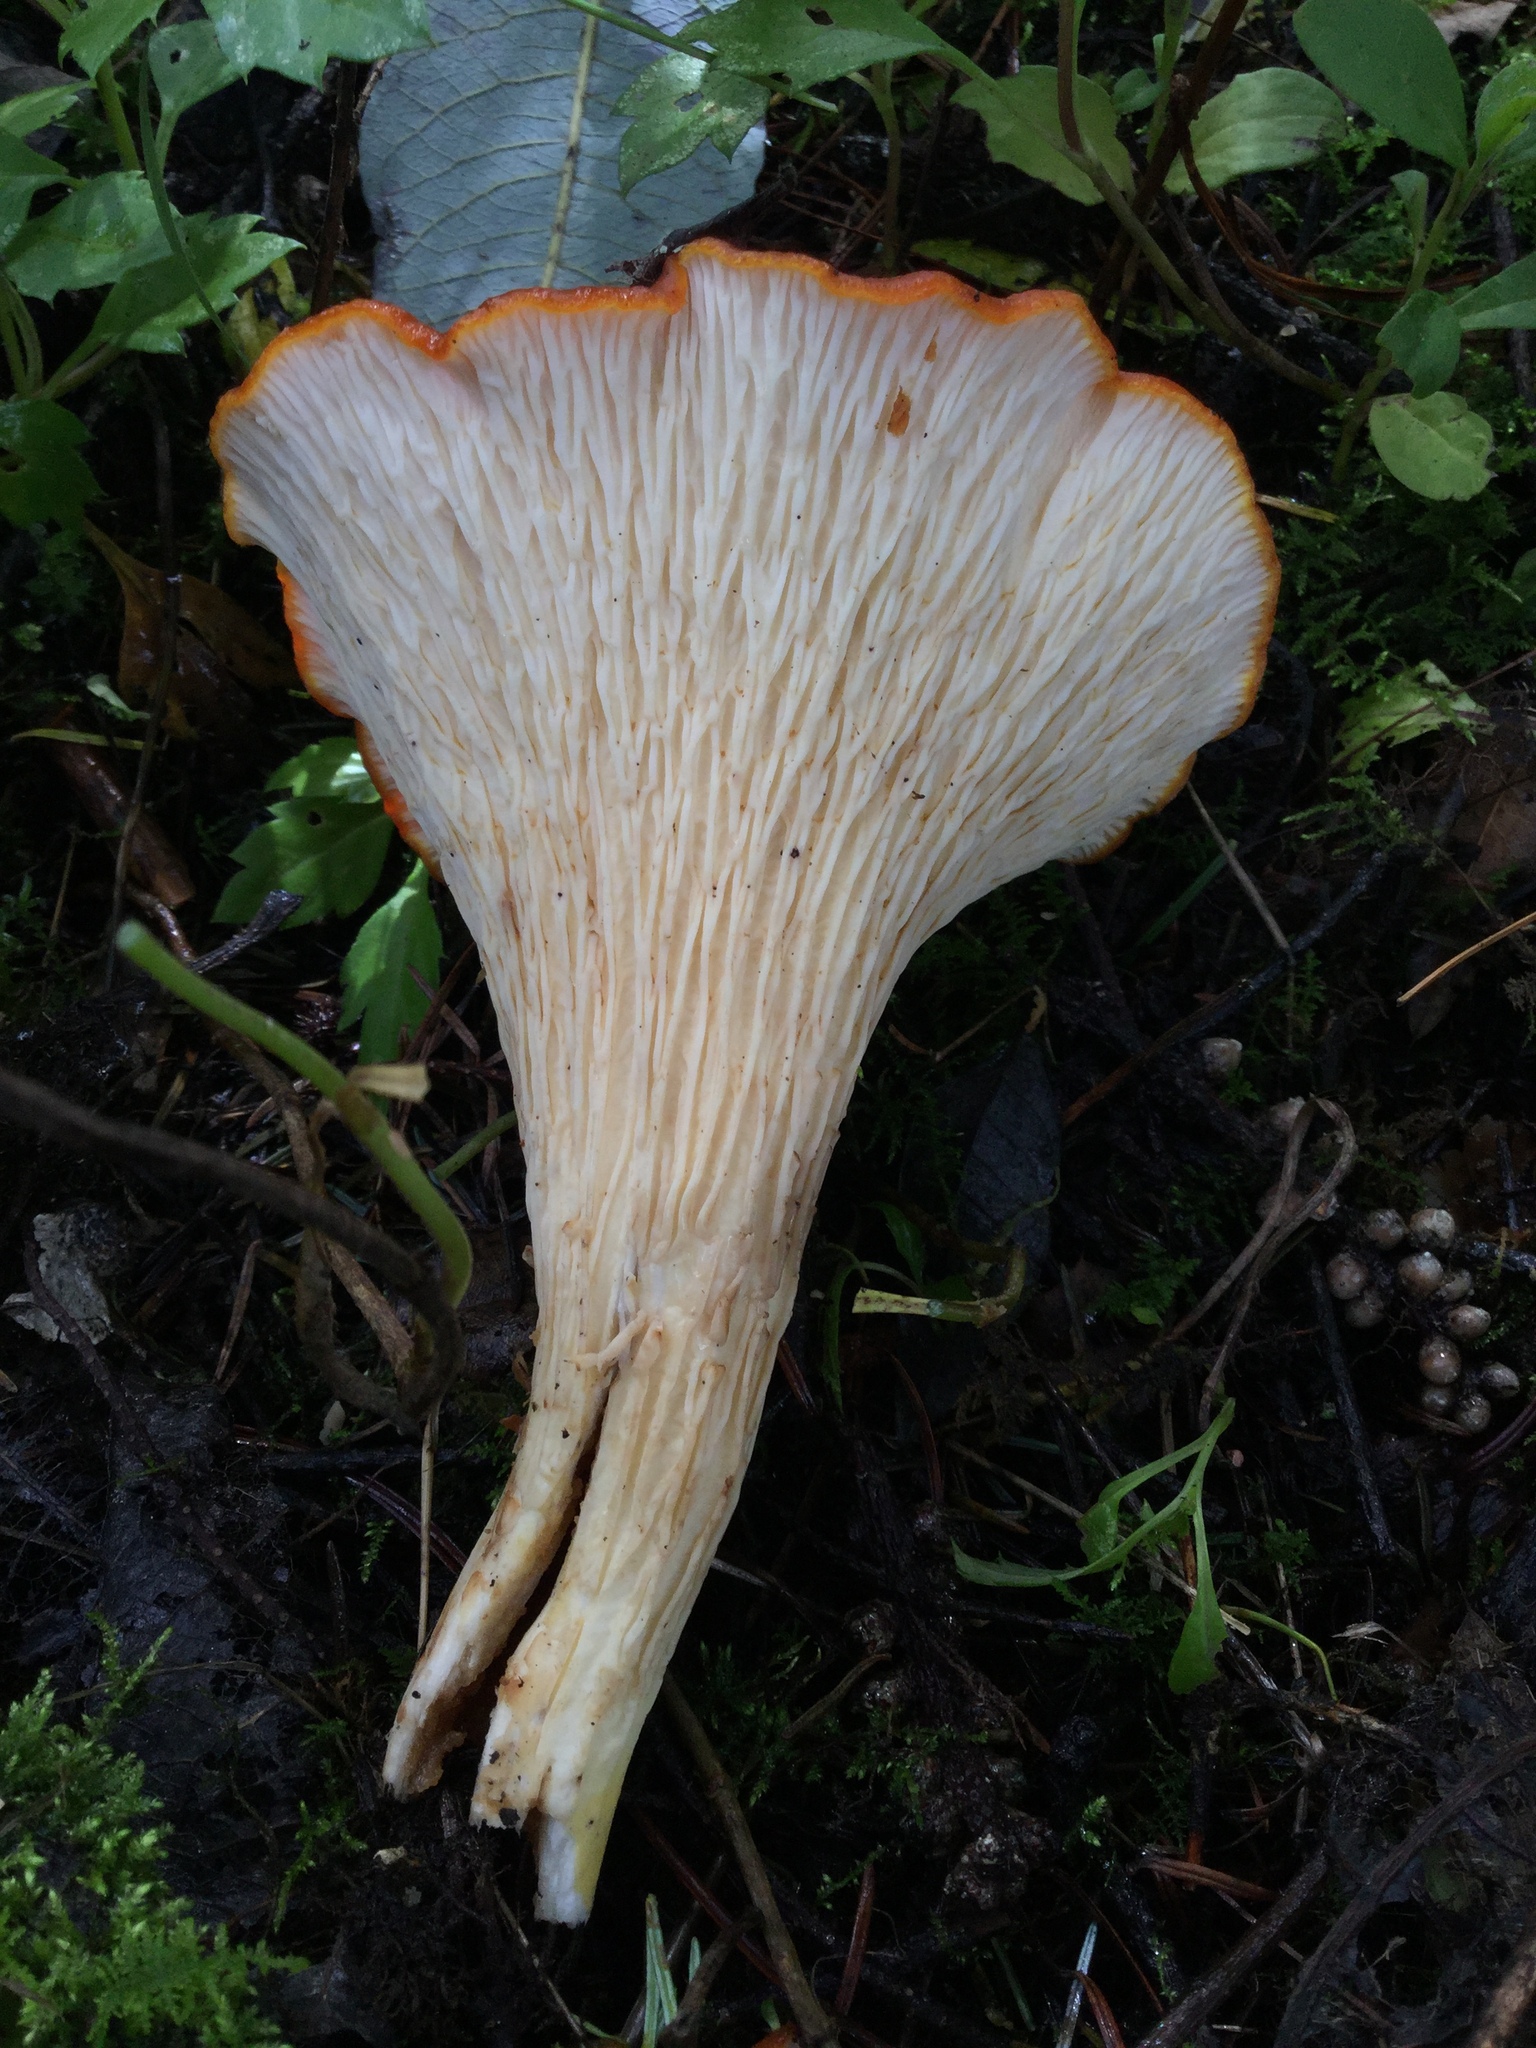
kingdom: Fungi
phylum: Basidiomycota
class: Agaricomycetes
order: Gomphales
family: Gomphaceae
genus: Turbinellus
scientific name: Turbinellus floccosus
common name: Scaly chanterelle
